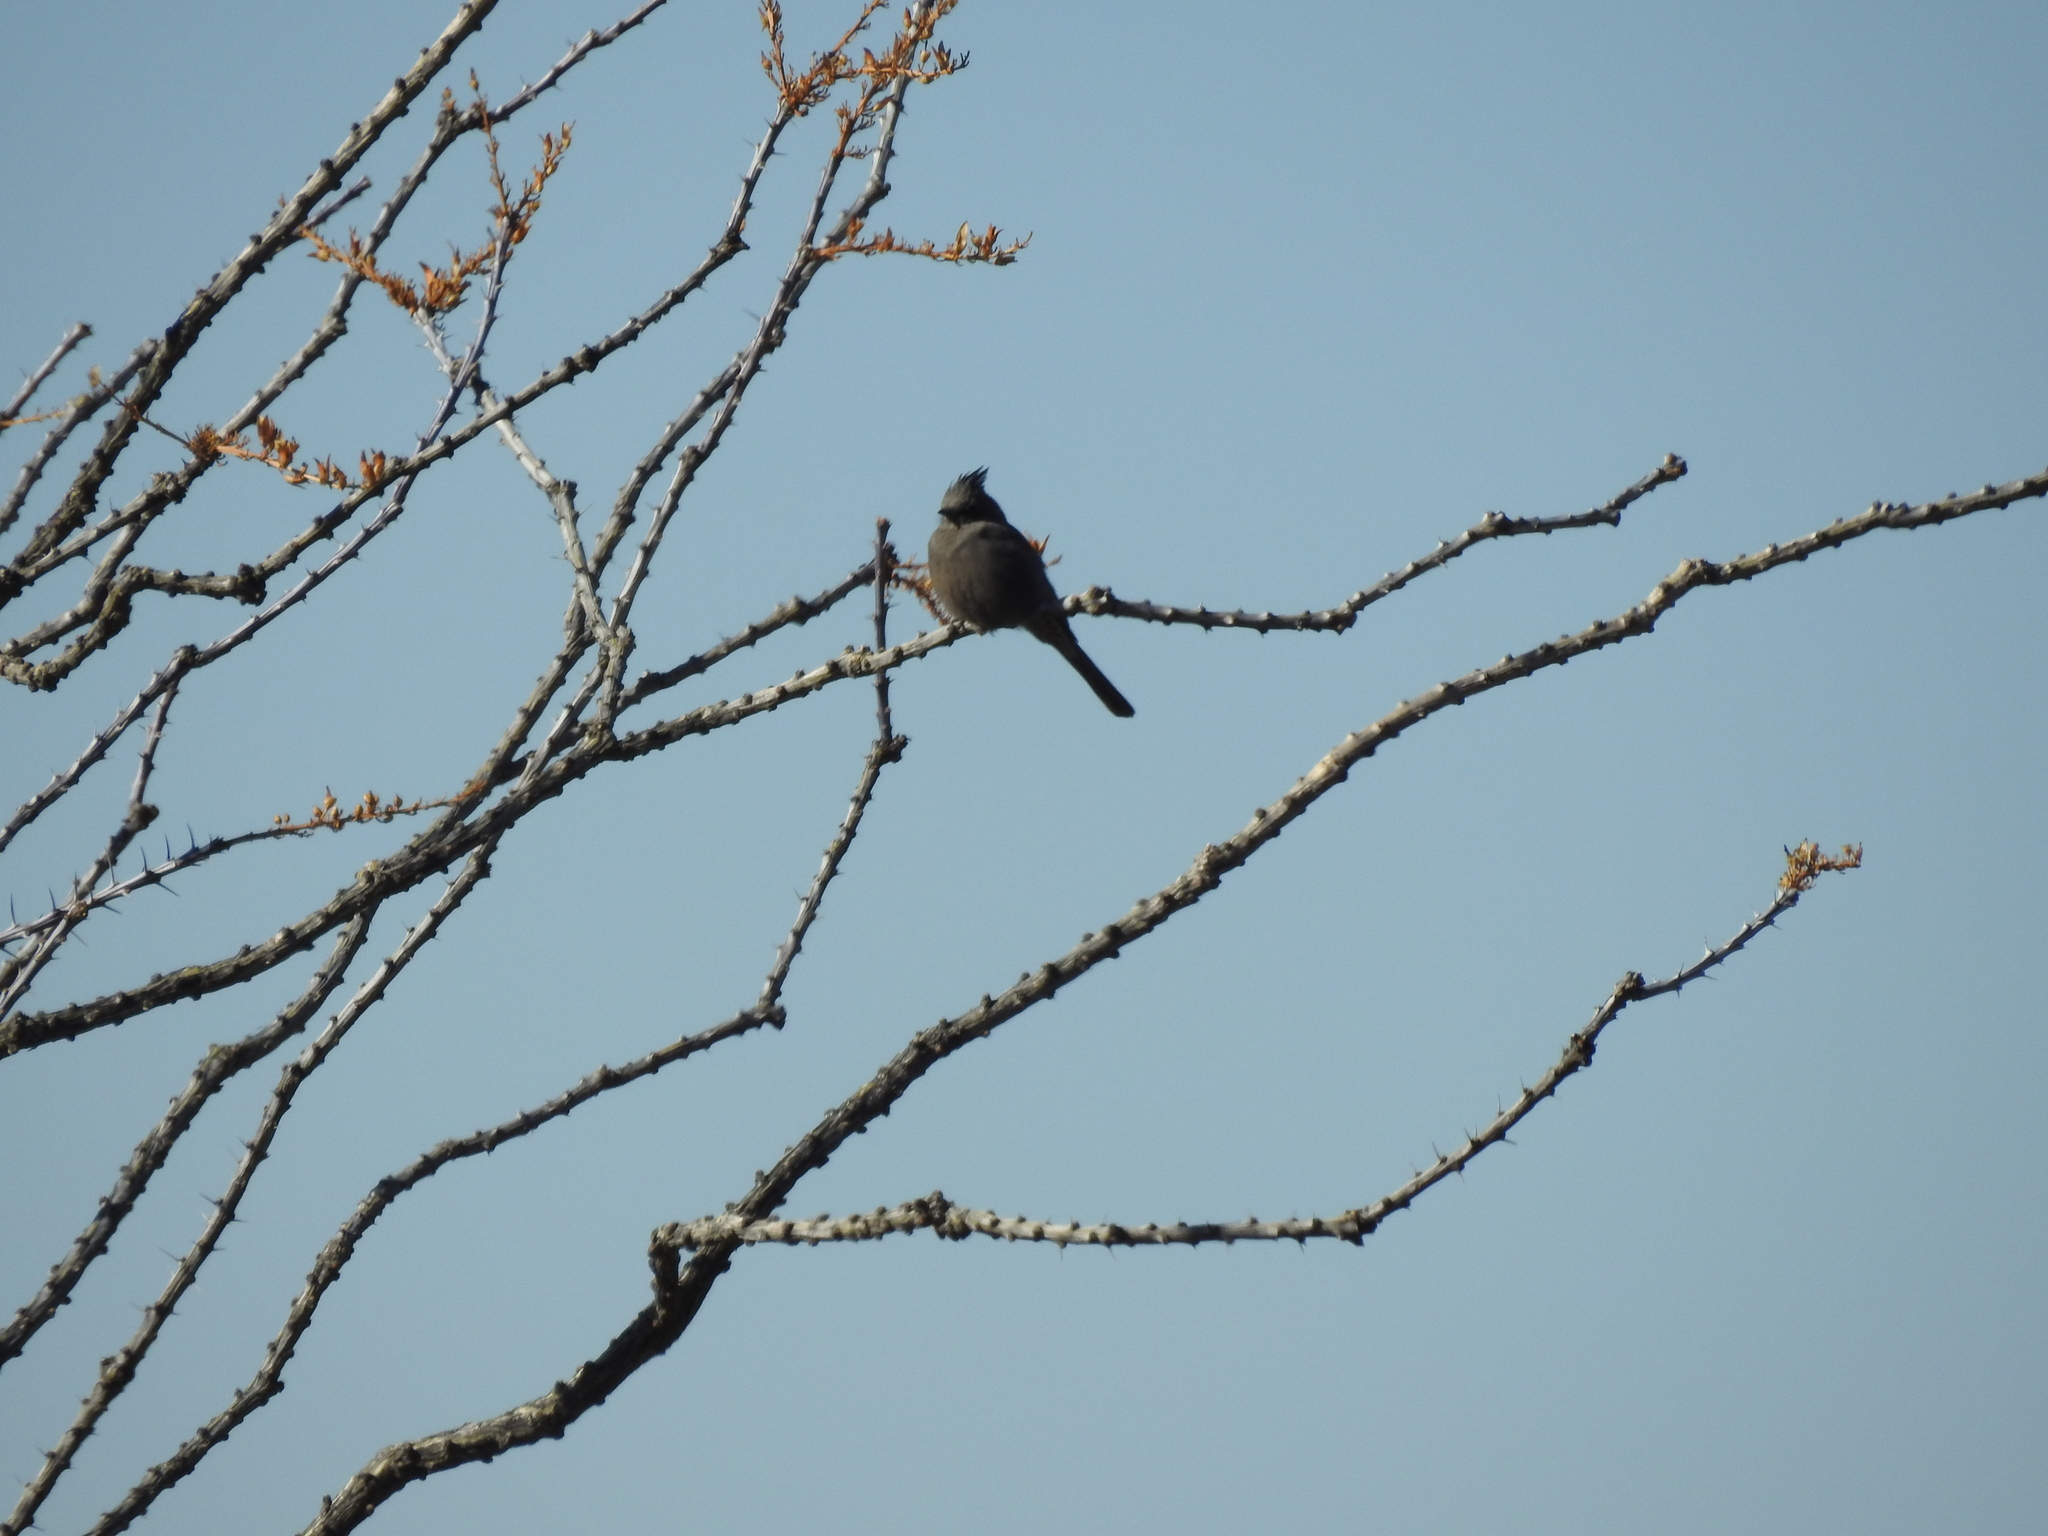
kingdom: Animalia
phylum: Chordata
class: Aves
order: Passeriformes
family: Ptilogonatidae
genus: Phainopepla
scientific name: Phainopepla nitens
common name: Phainopepla
